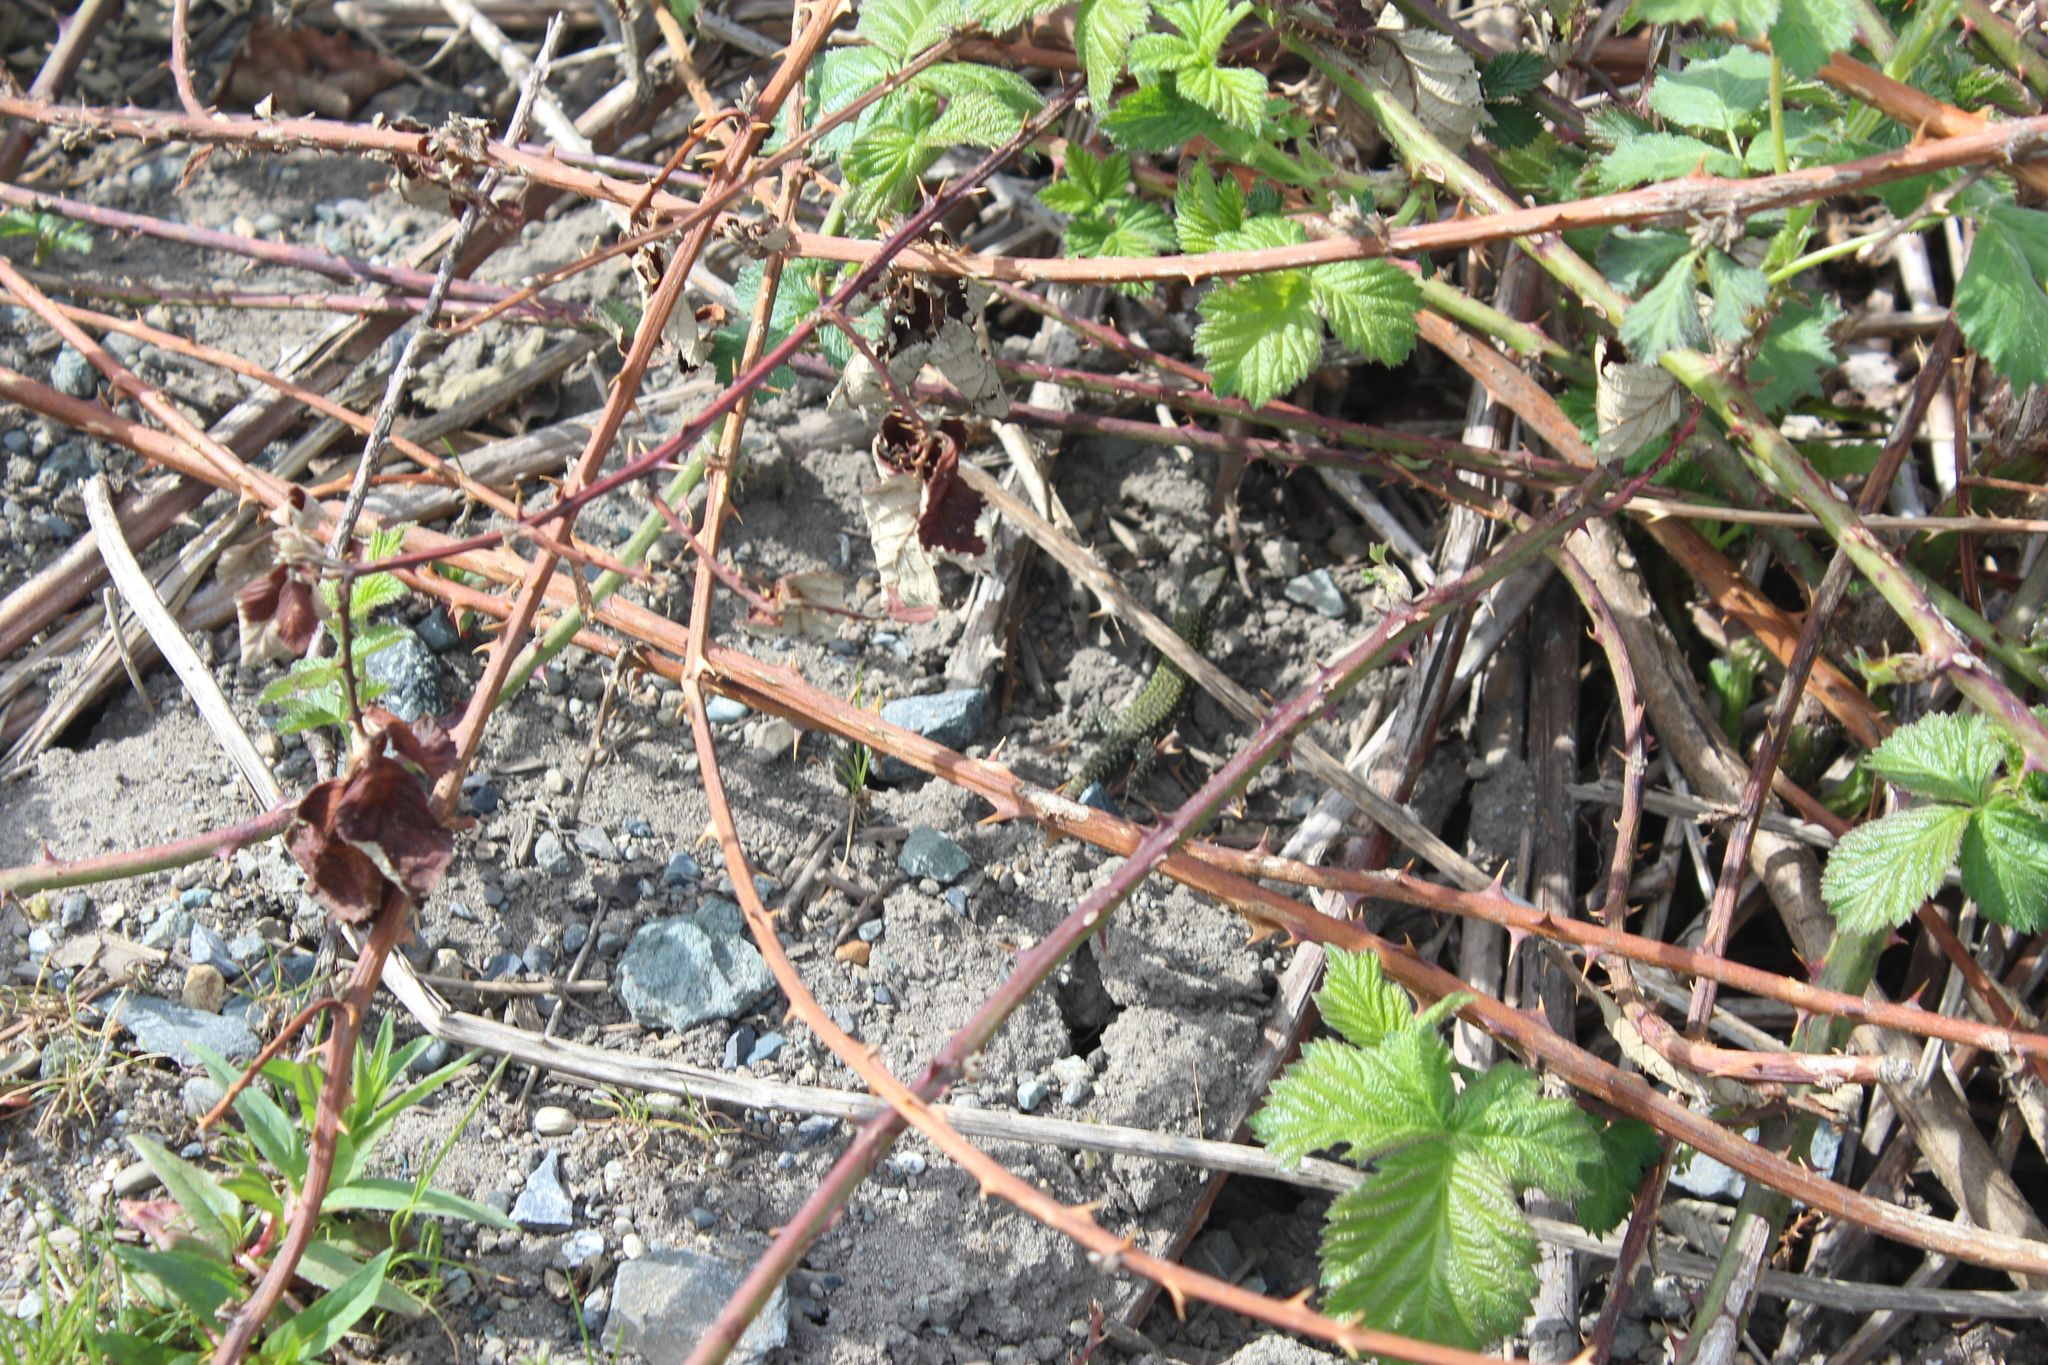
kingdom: Animalia
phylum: Chordata
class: Squamata
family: Lacertidae
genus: Podarcis
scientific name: Podarcis muralis
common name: Common wall lizard
